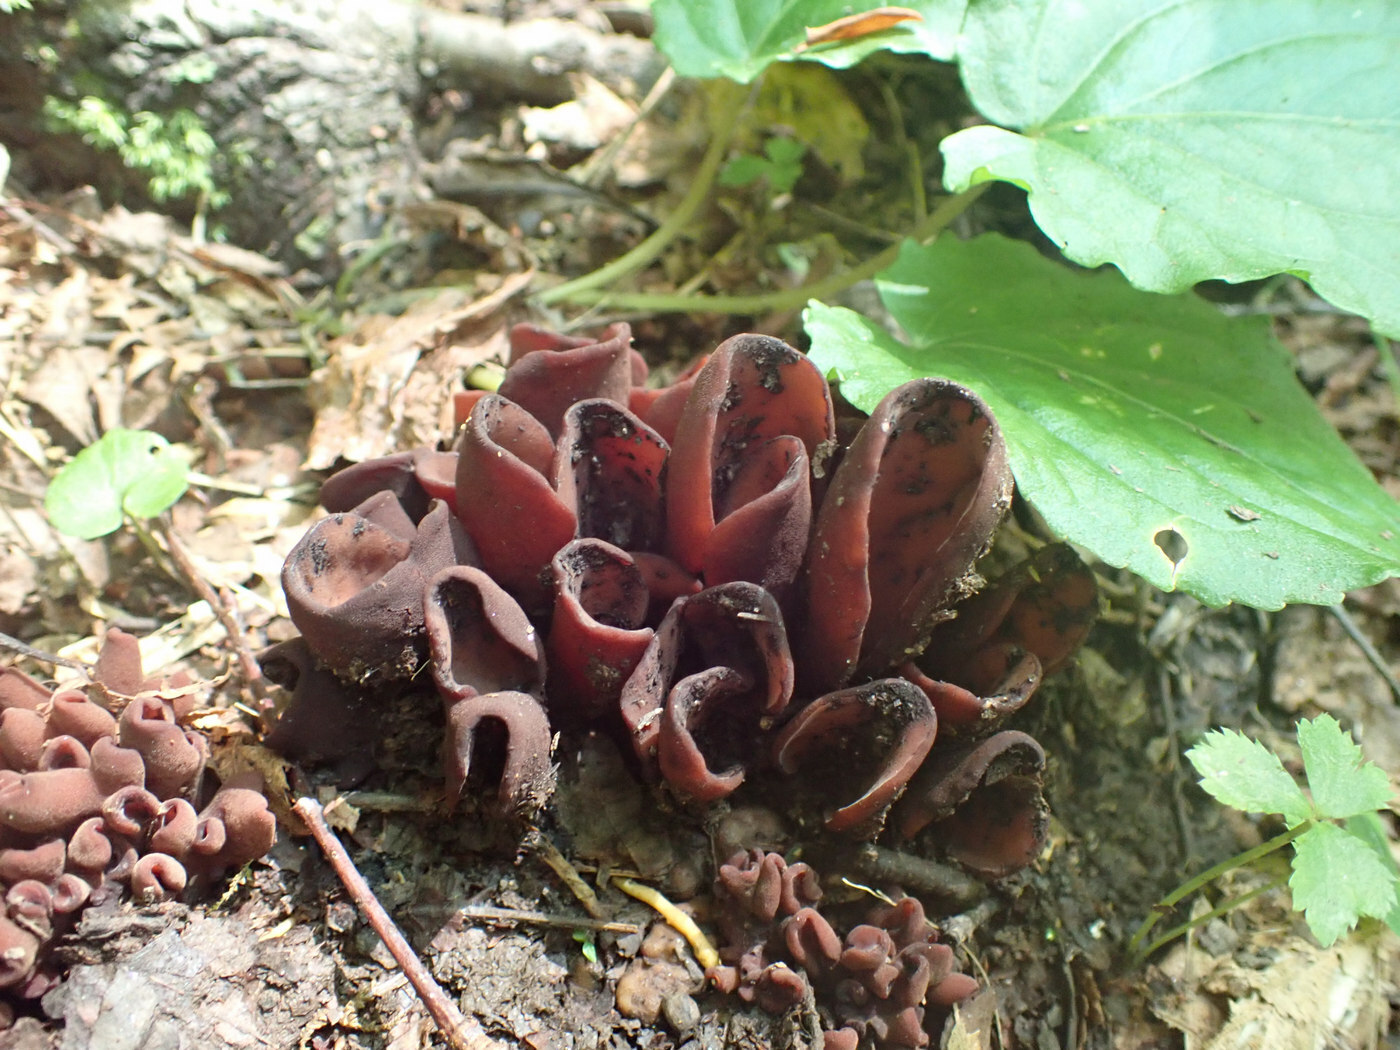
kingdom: Fungi
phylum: Ascomycota
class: Pezizomycetes
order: Pezizales
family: Wynneaceae
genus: Wynnea
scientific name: Wynnea americana
